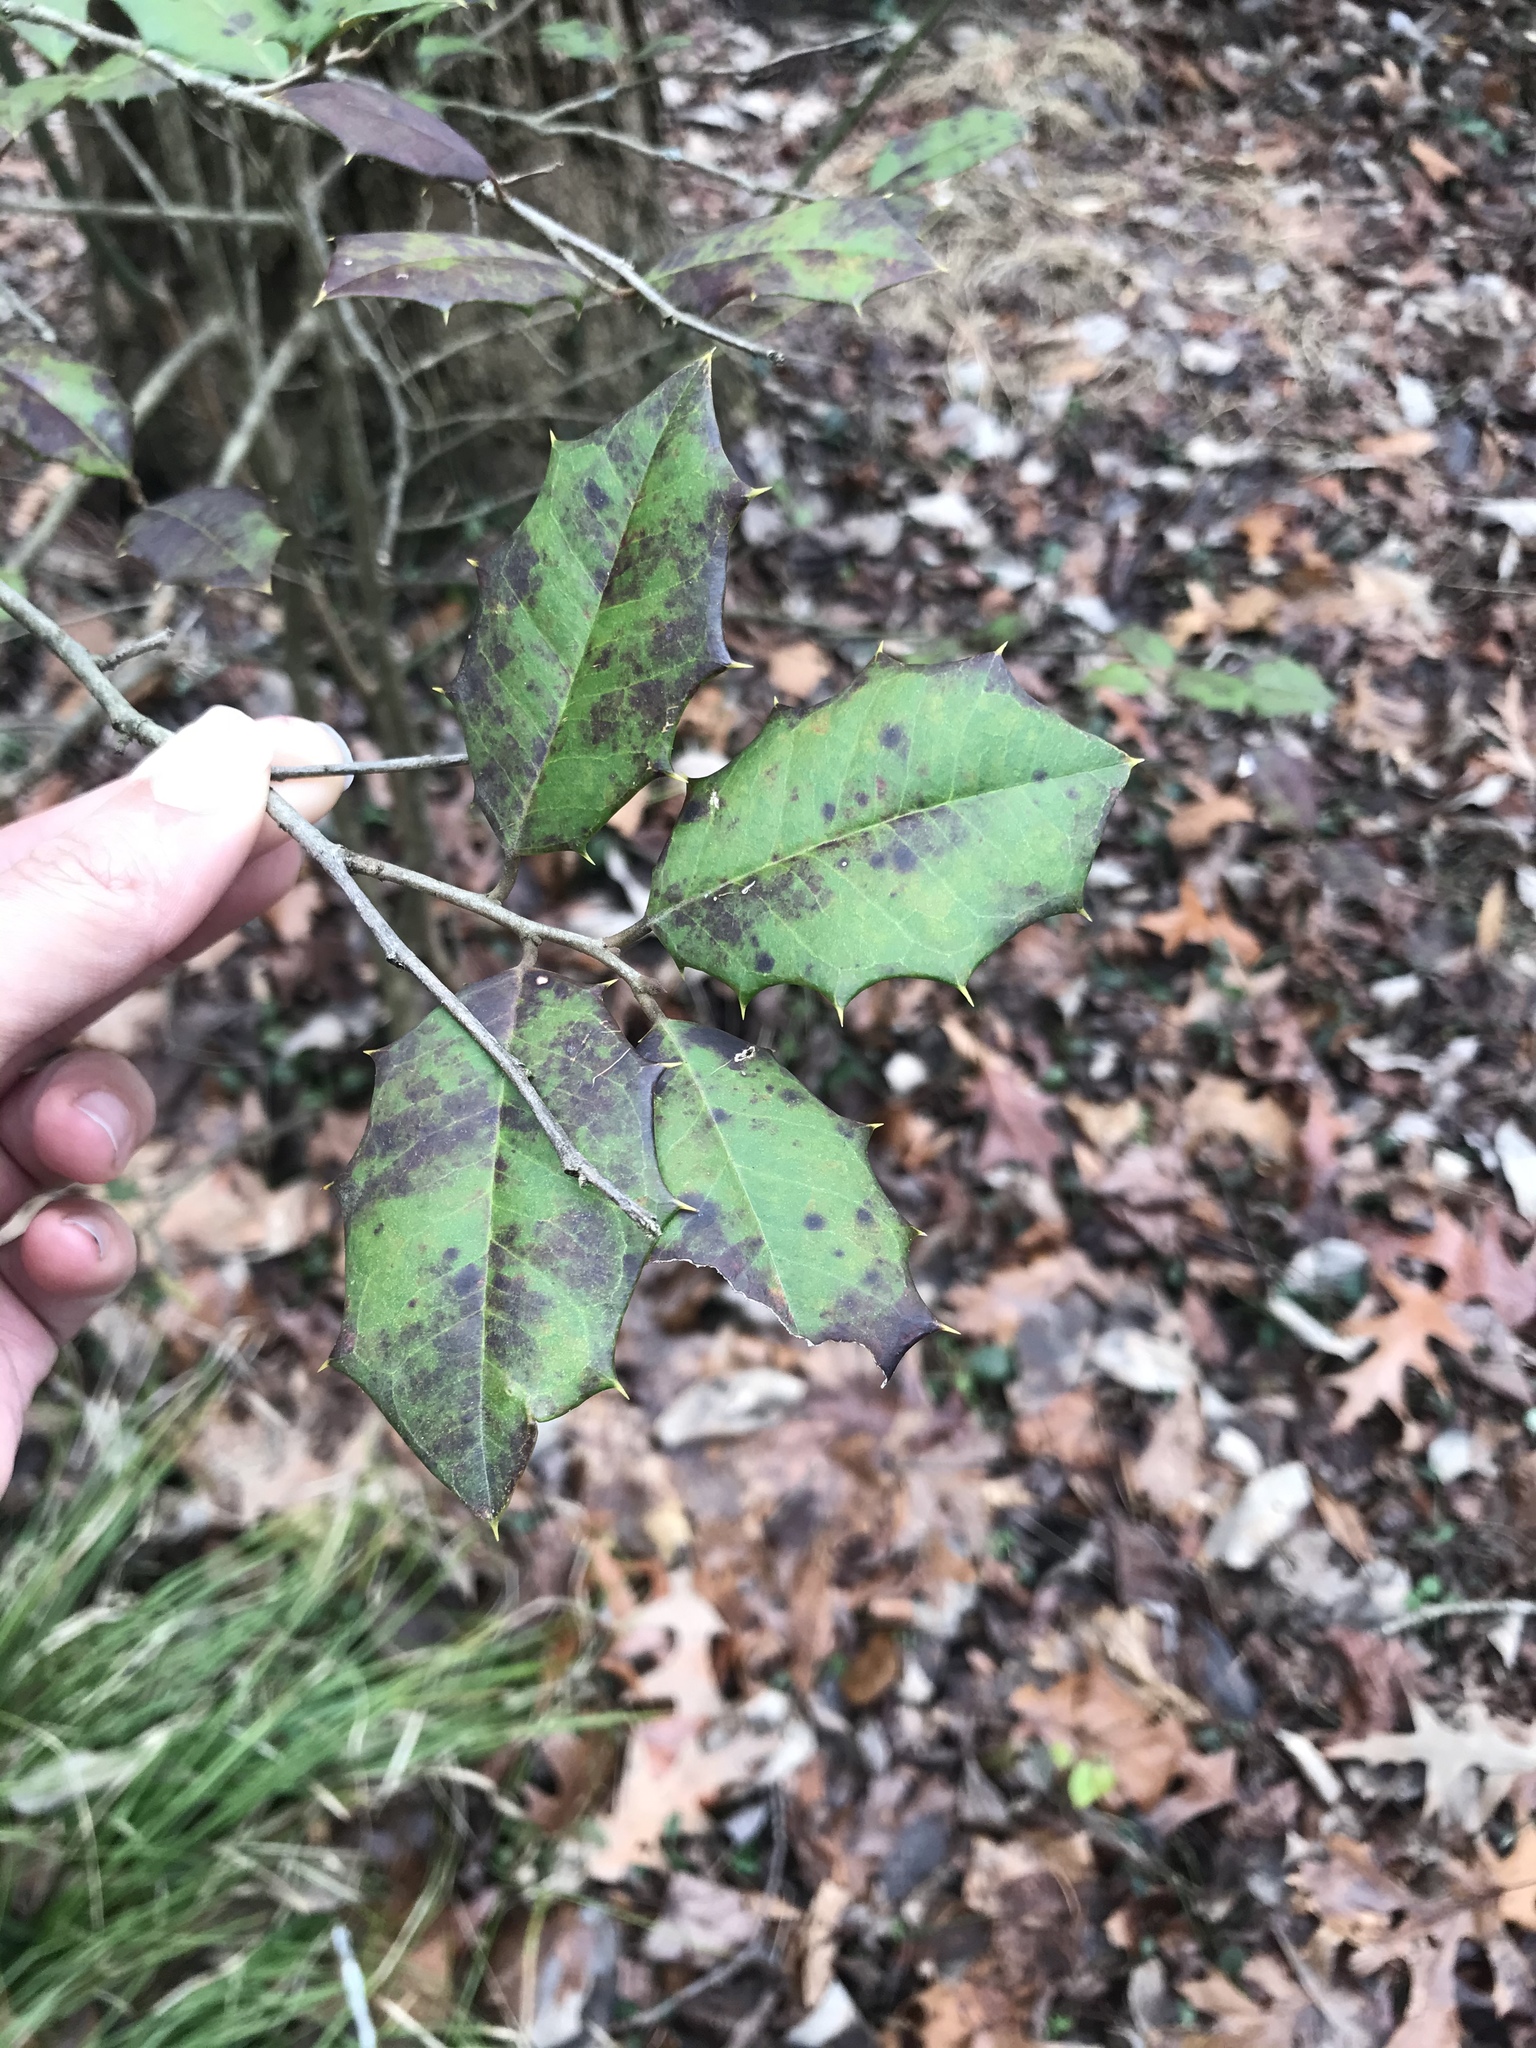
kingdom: Plantae
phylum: Tracheophyta
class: Magnoliopsida
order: Aquifoliales
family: Aquifoliaceae
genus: Ilex
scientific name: Ilex opaca
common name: American holly
